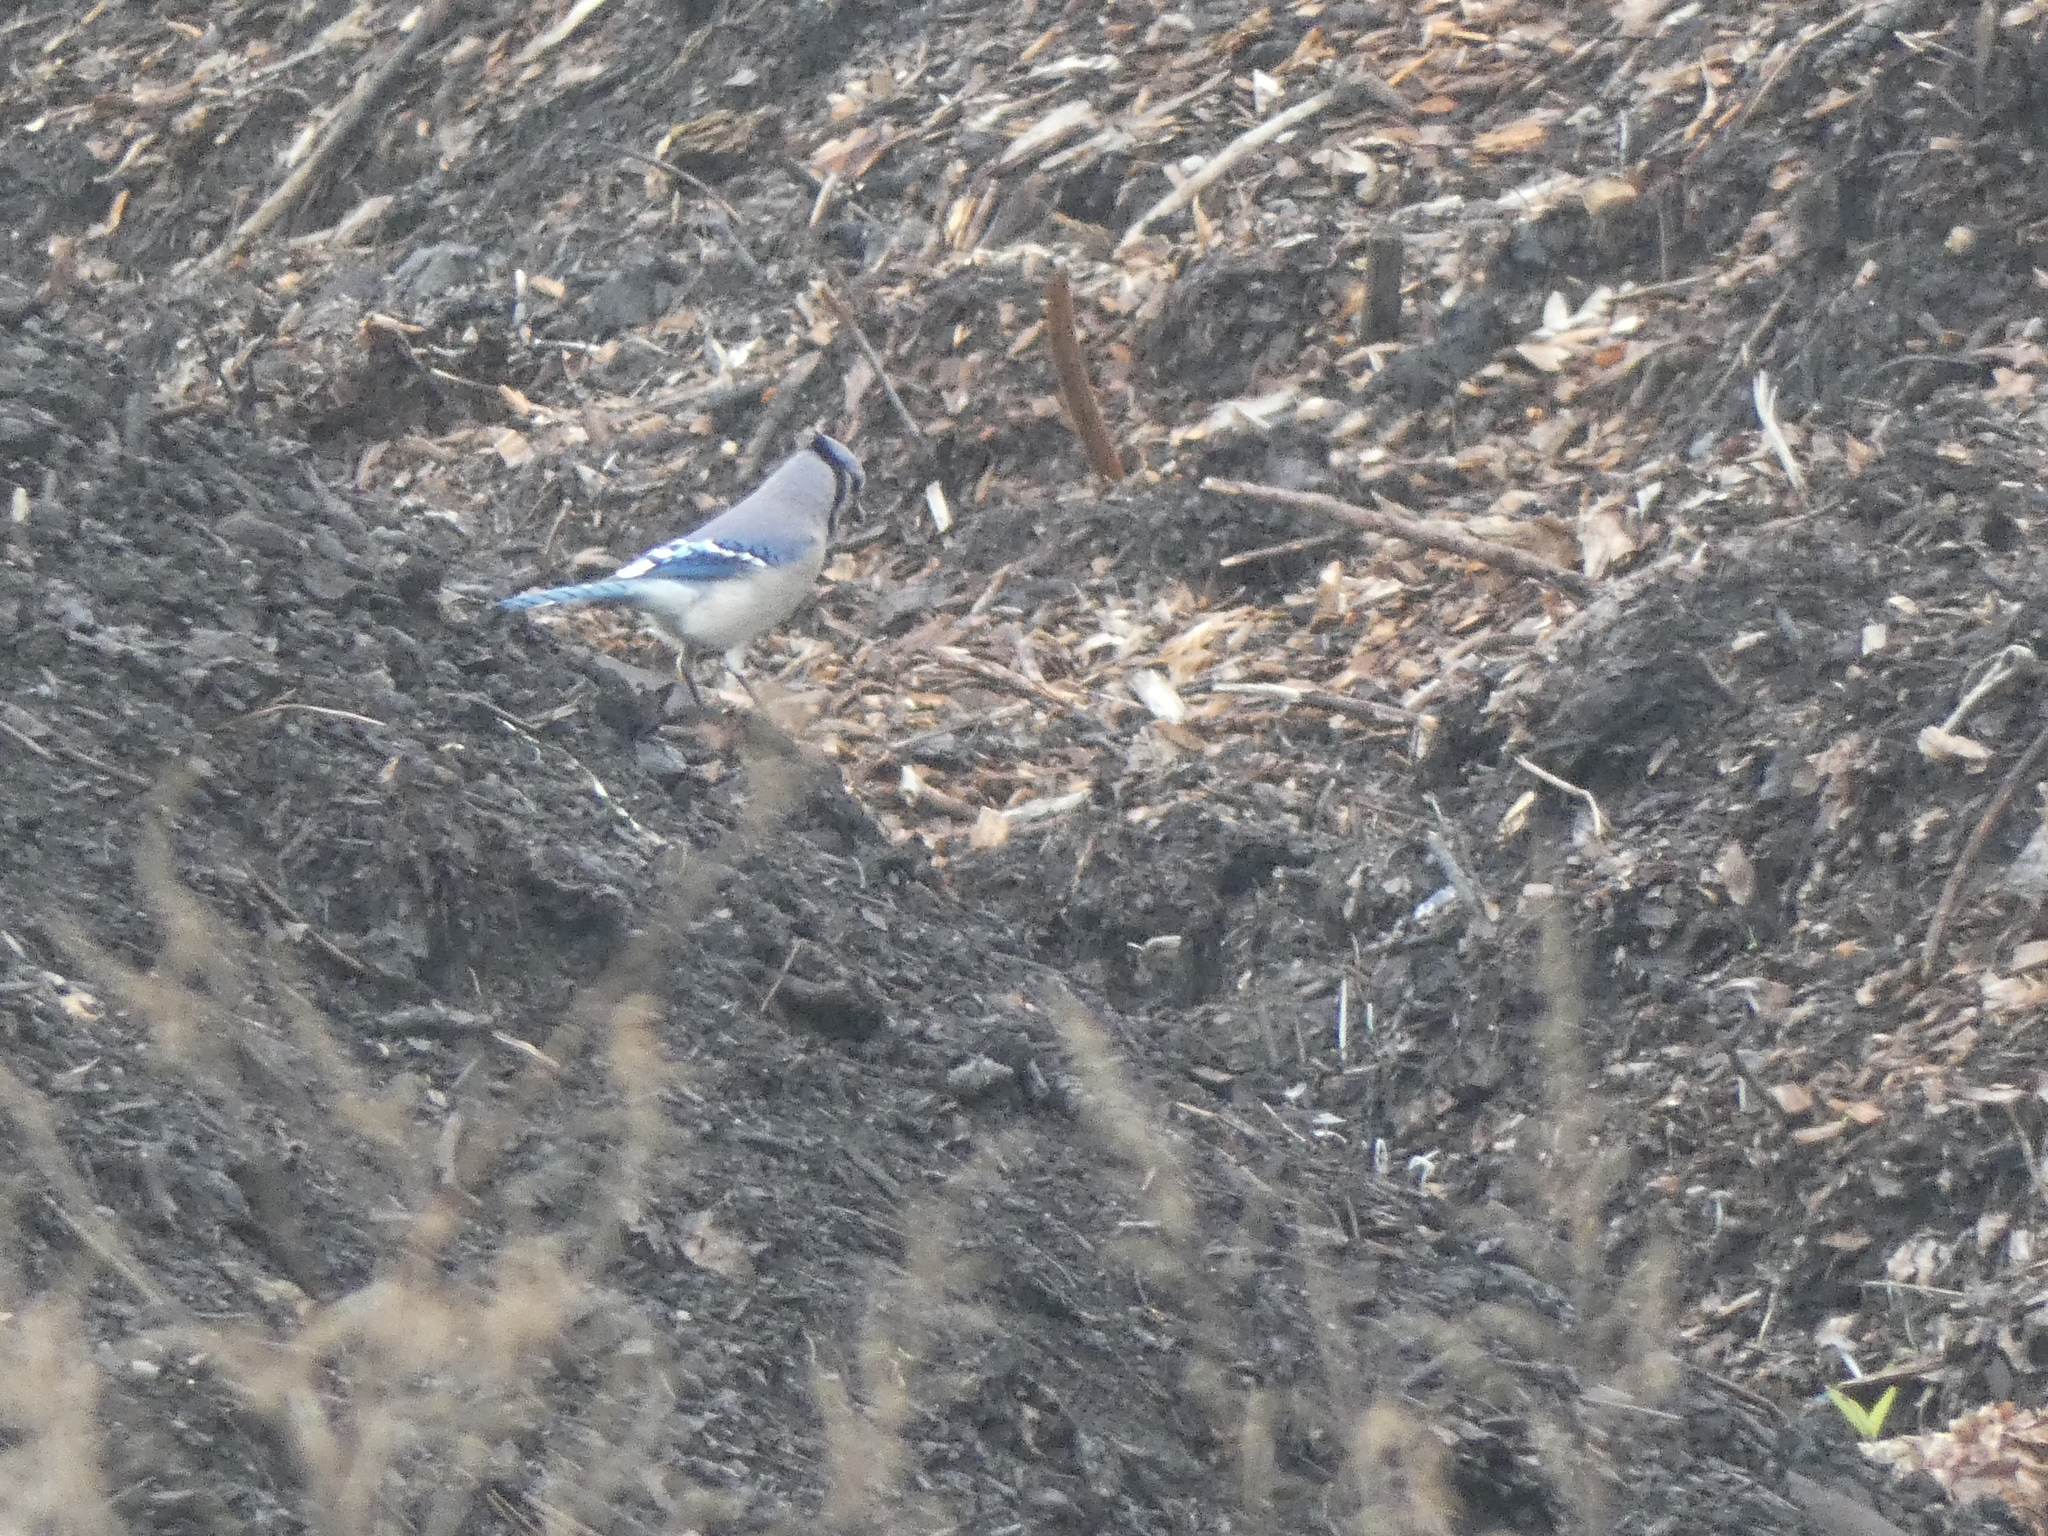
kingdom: Animalia
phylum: Chordata
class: Aves
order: Passeriformes
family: Corvidae
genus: Cyanocitta
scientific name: Cyanocitta cristata
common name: Blue jay
